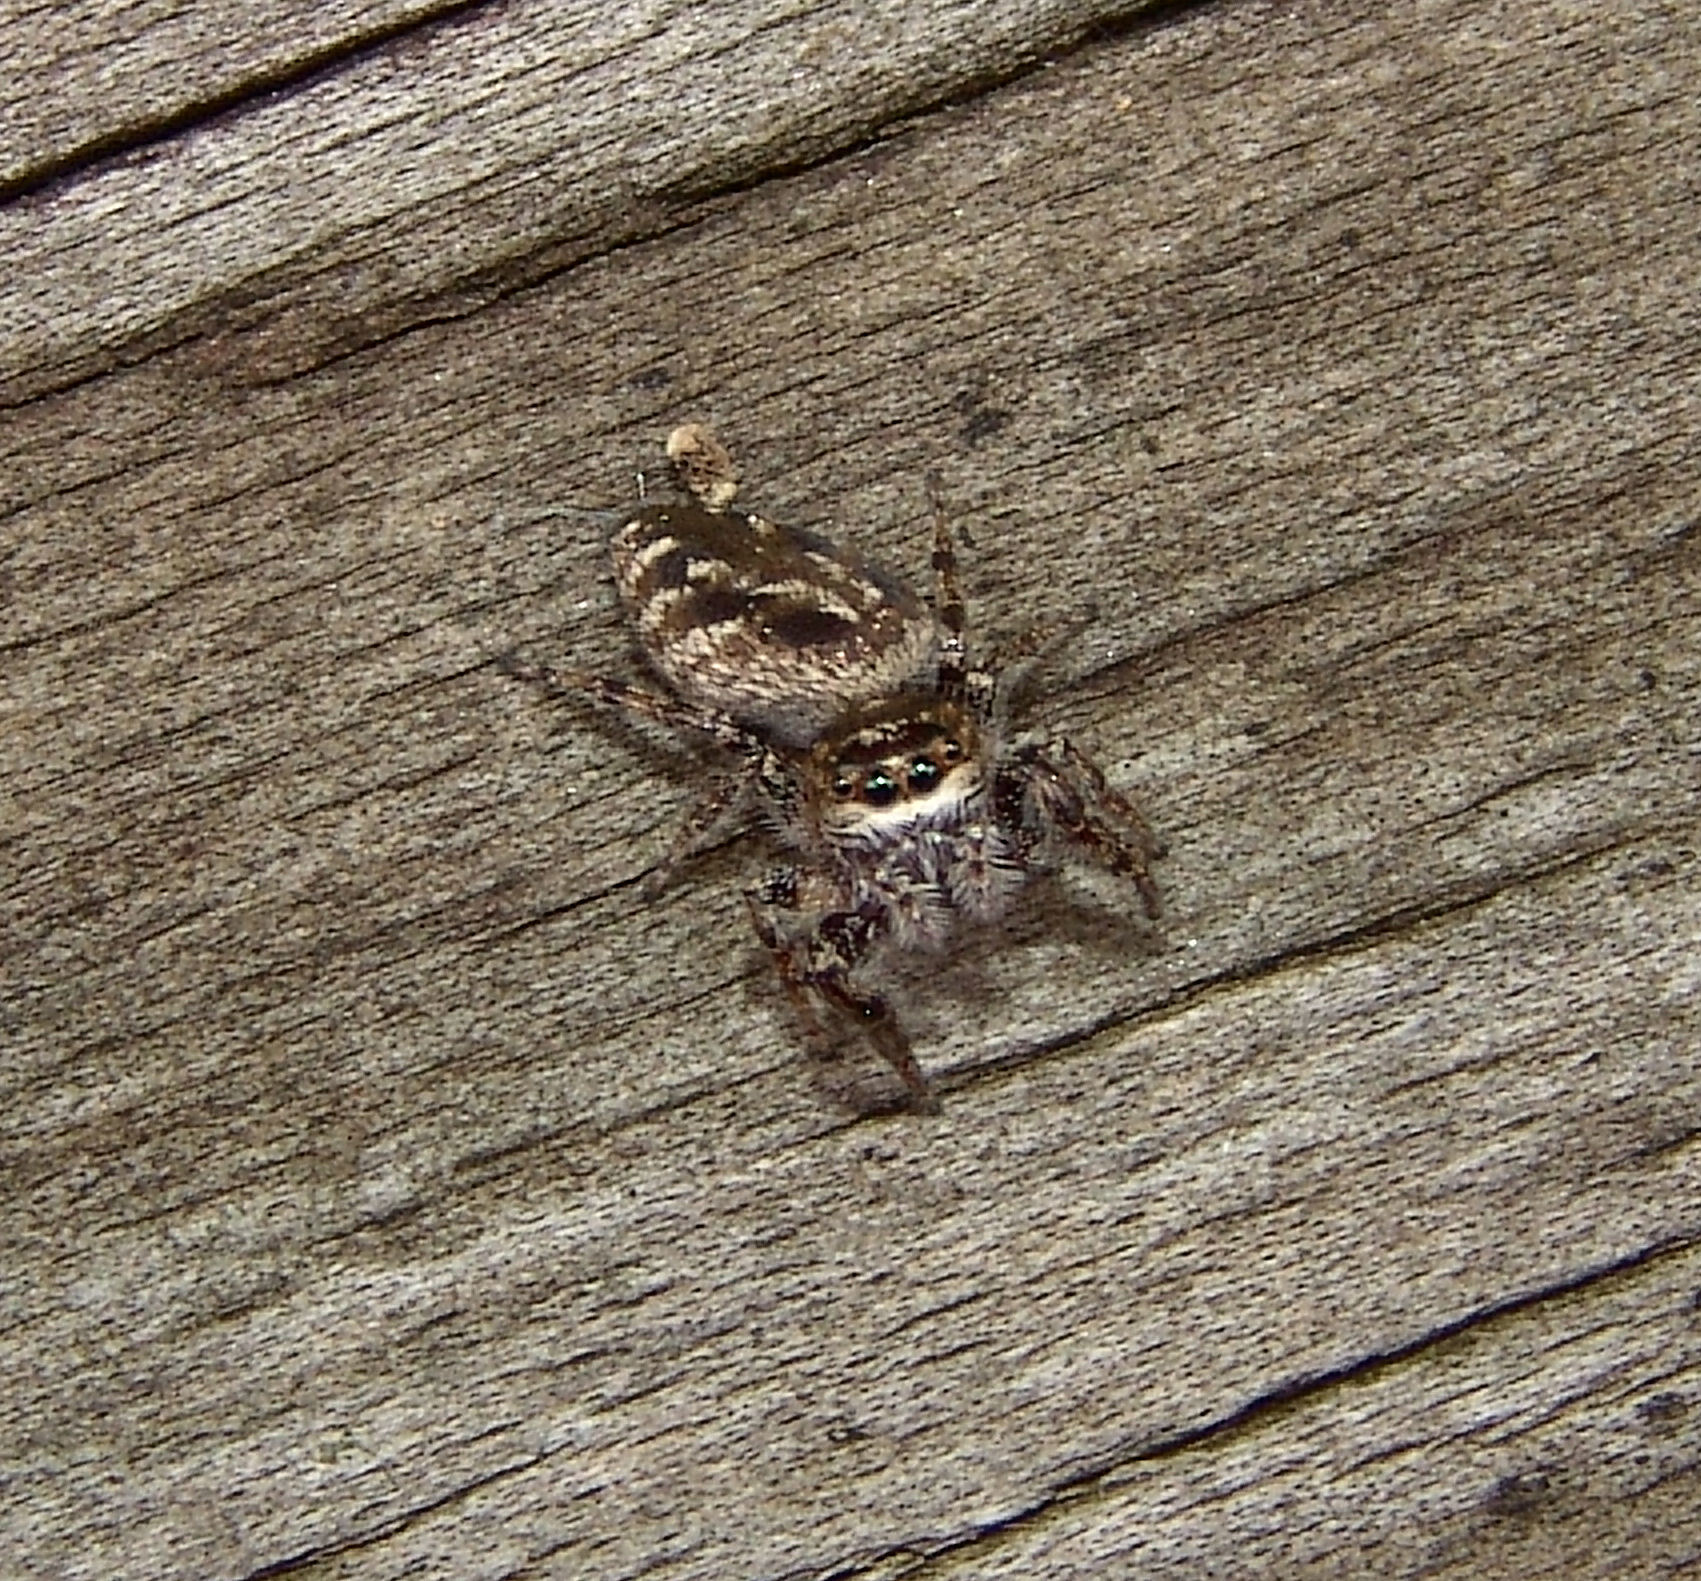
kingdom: Animalia
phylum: Arthropoda
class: Arachnida
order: Araneae
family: Salticidae
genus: Eris
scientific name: Eris militaris
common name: Bronze jumper
